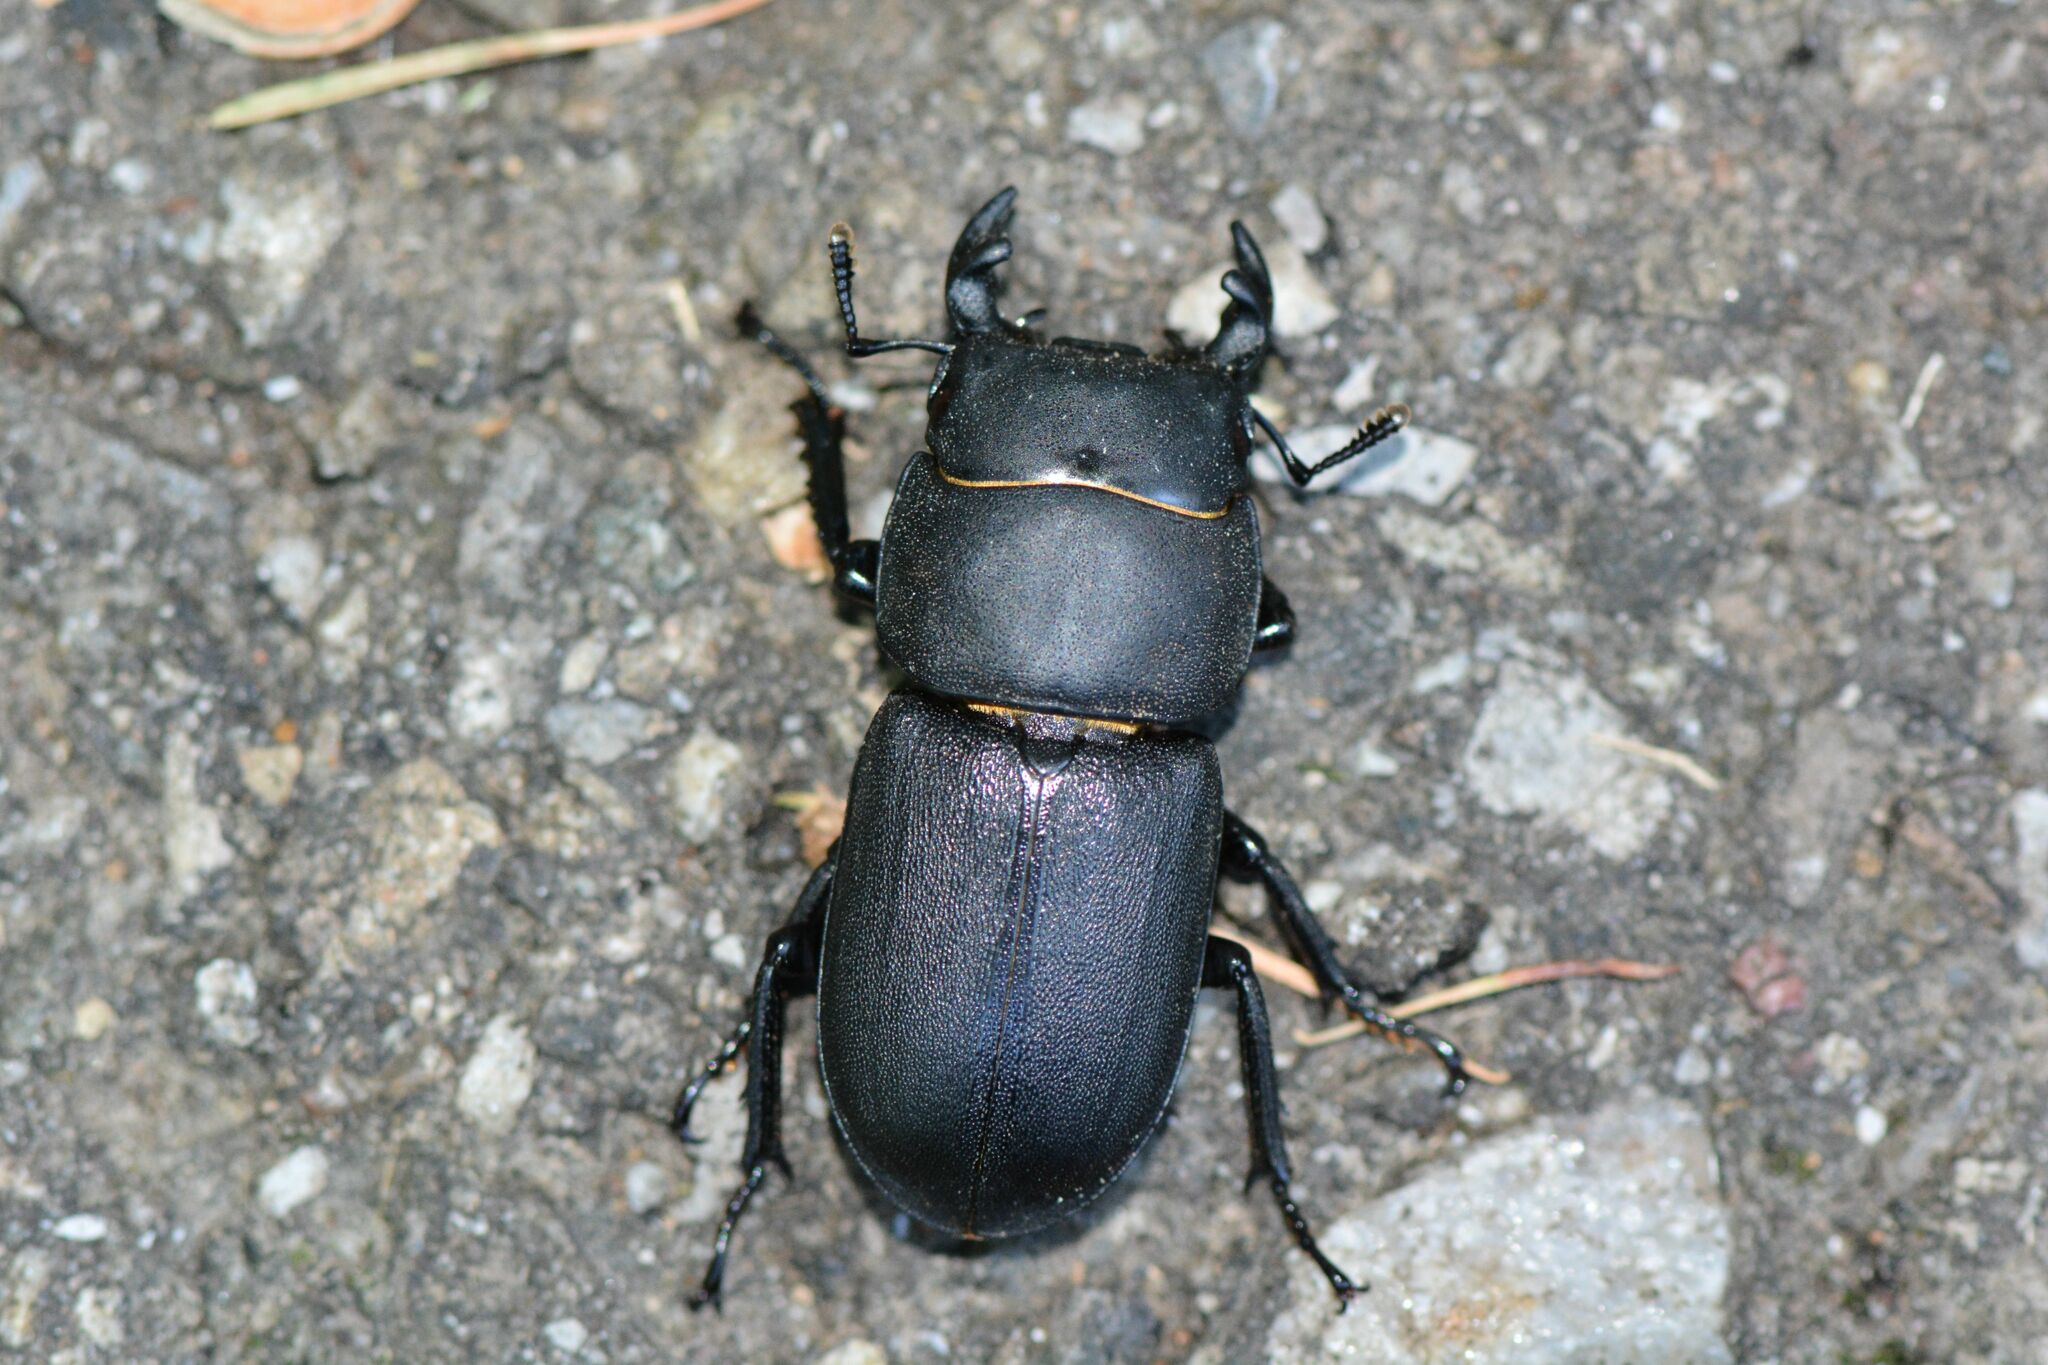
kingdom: Animalia
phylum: Arthropoda
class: Insecta
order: Coleoptera
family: Lucanidae
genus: Dorcus
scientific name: Dorcus parallelipipedus
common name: Lesser stag beetle
